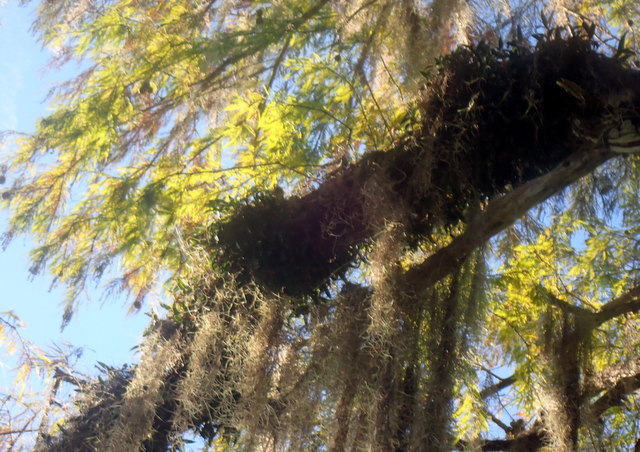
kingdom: Plantae
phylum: Tracheophyta
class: Liliopsida
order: Asparagales
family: Orchidaceae
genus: Epidendrum
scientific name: Epidendrum conopseum
